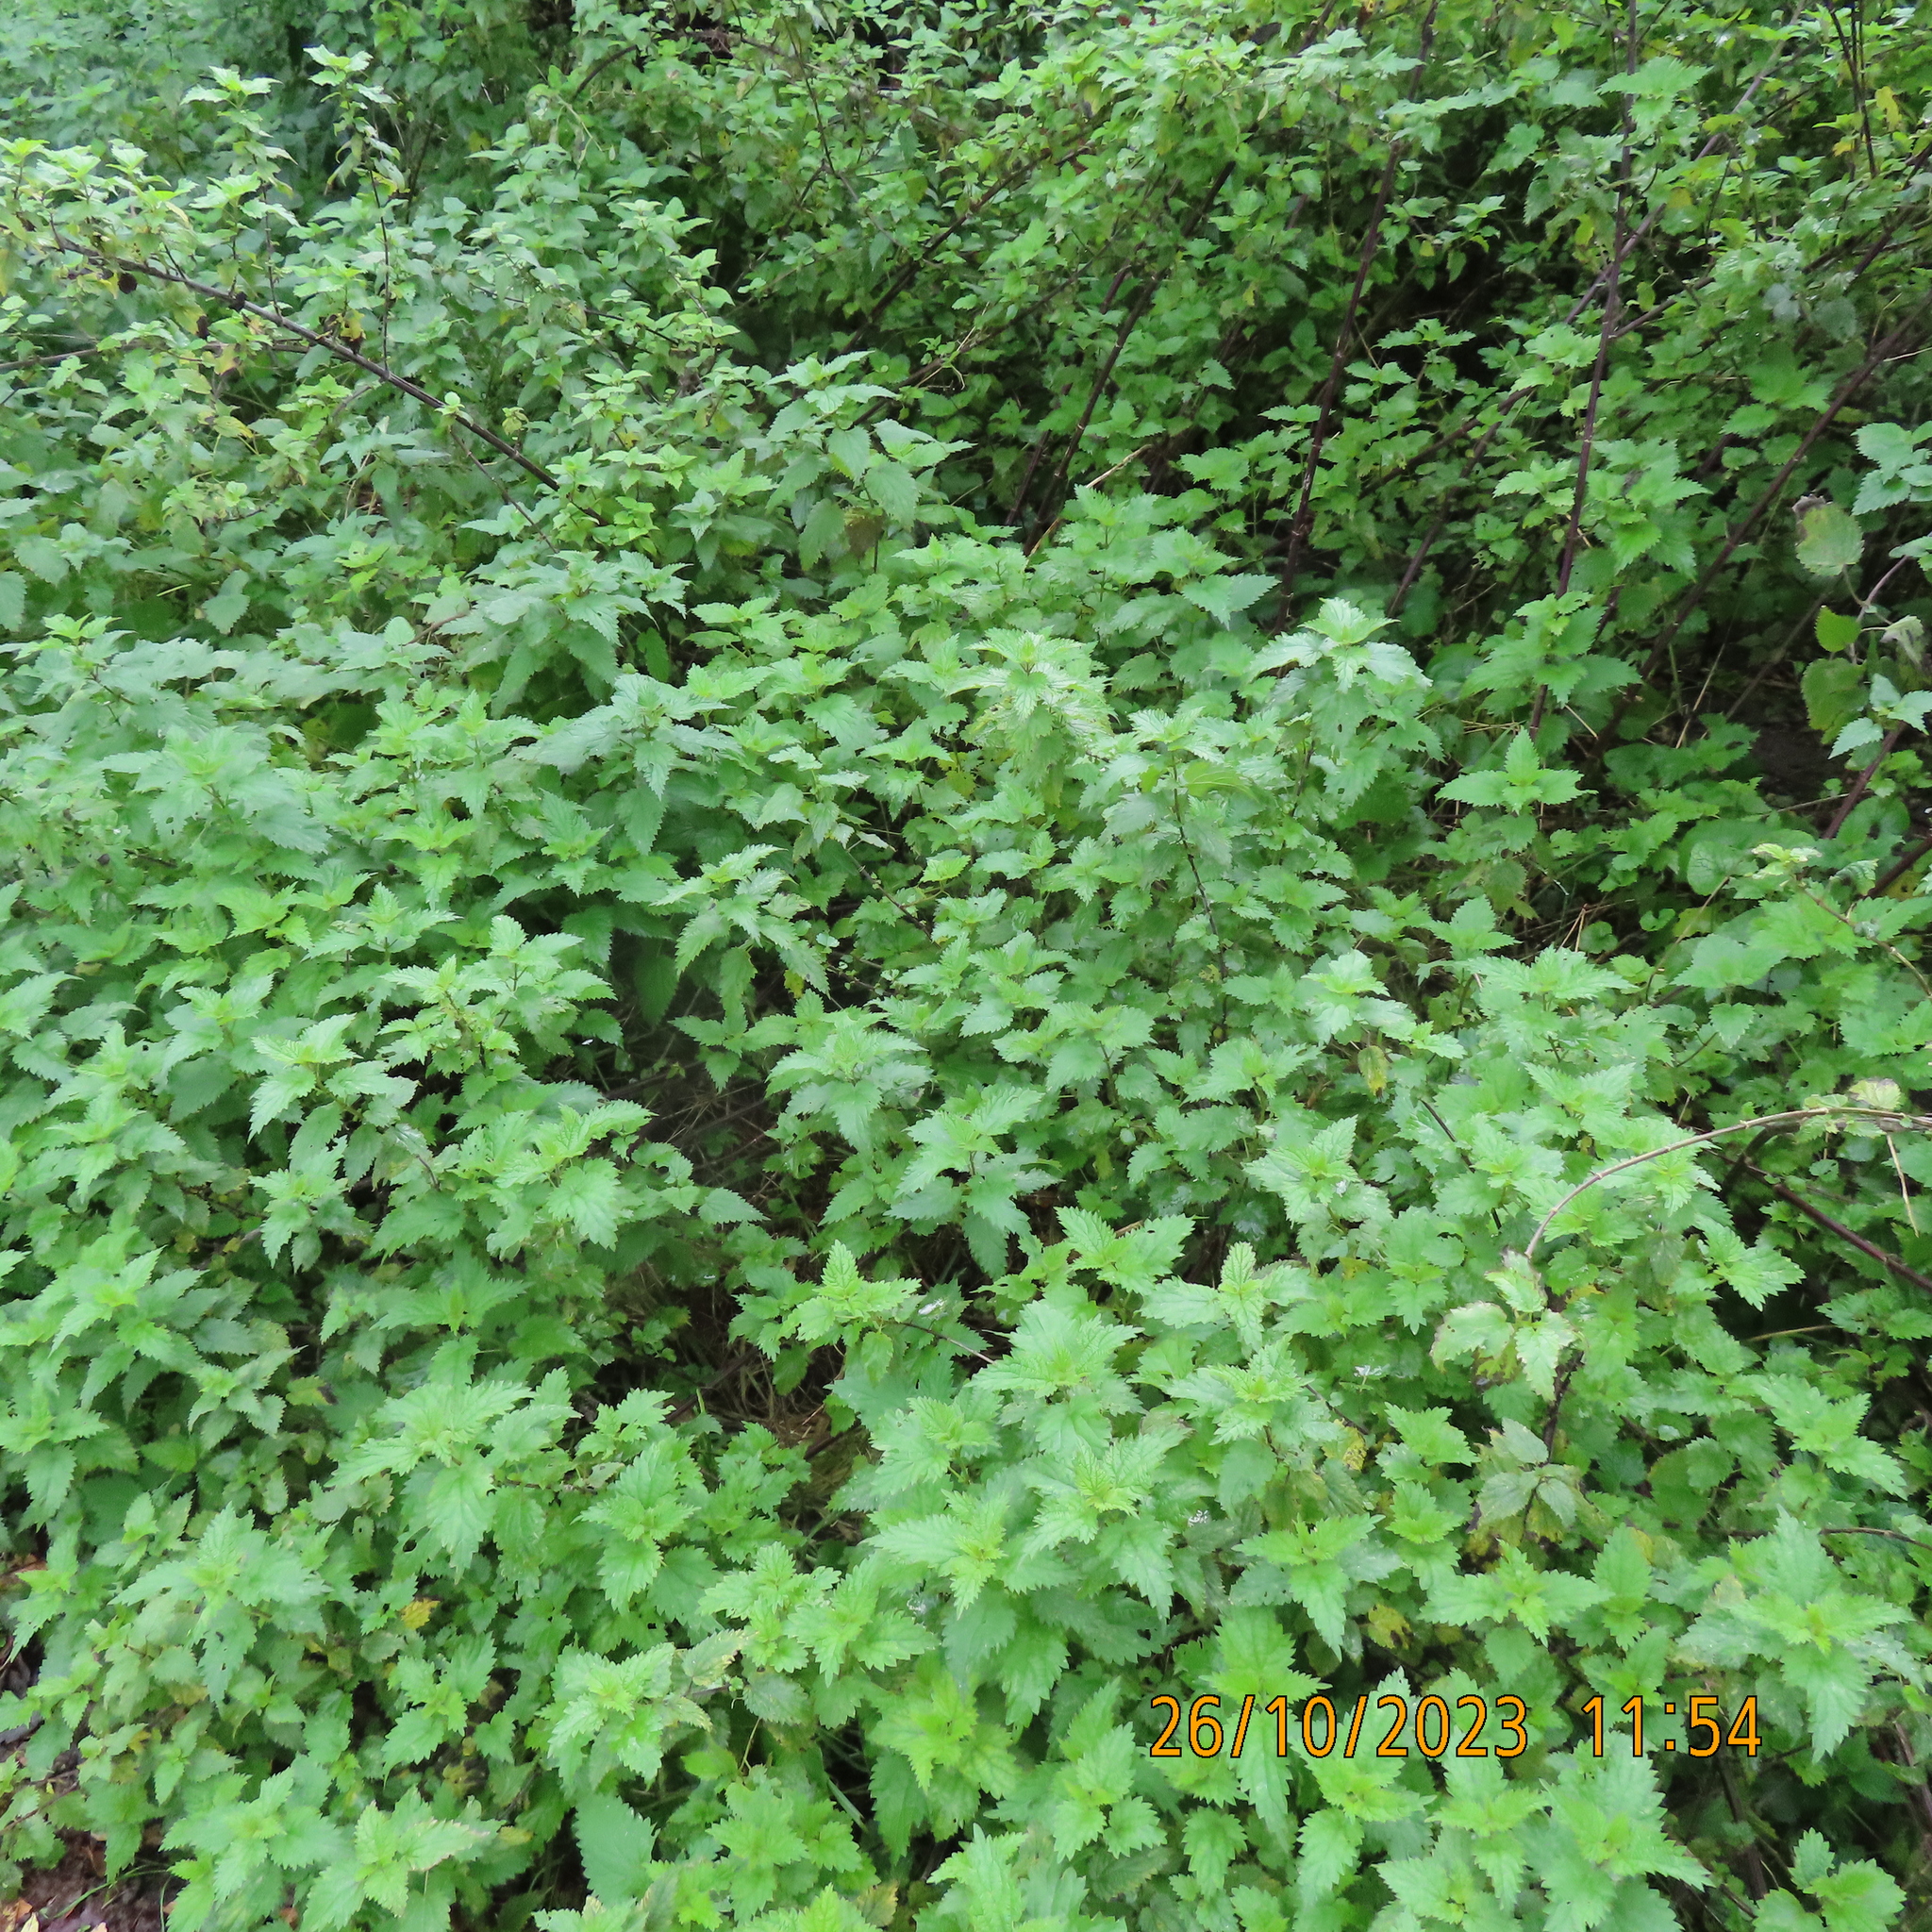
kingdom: Plantae
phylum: Tracheophyta
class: Magnoliopsida
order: Rosales
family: Urticaceae
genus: Urtica
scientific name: Urtica dioica
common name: Common nettle
